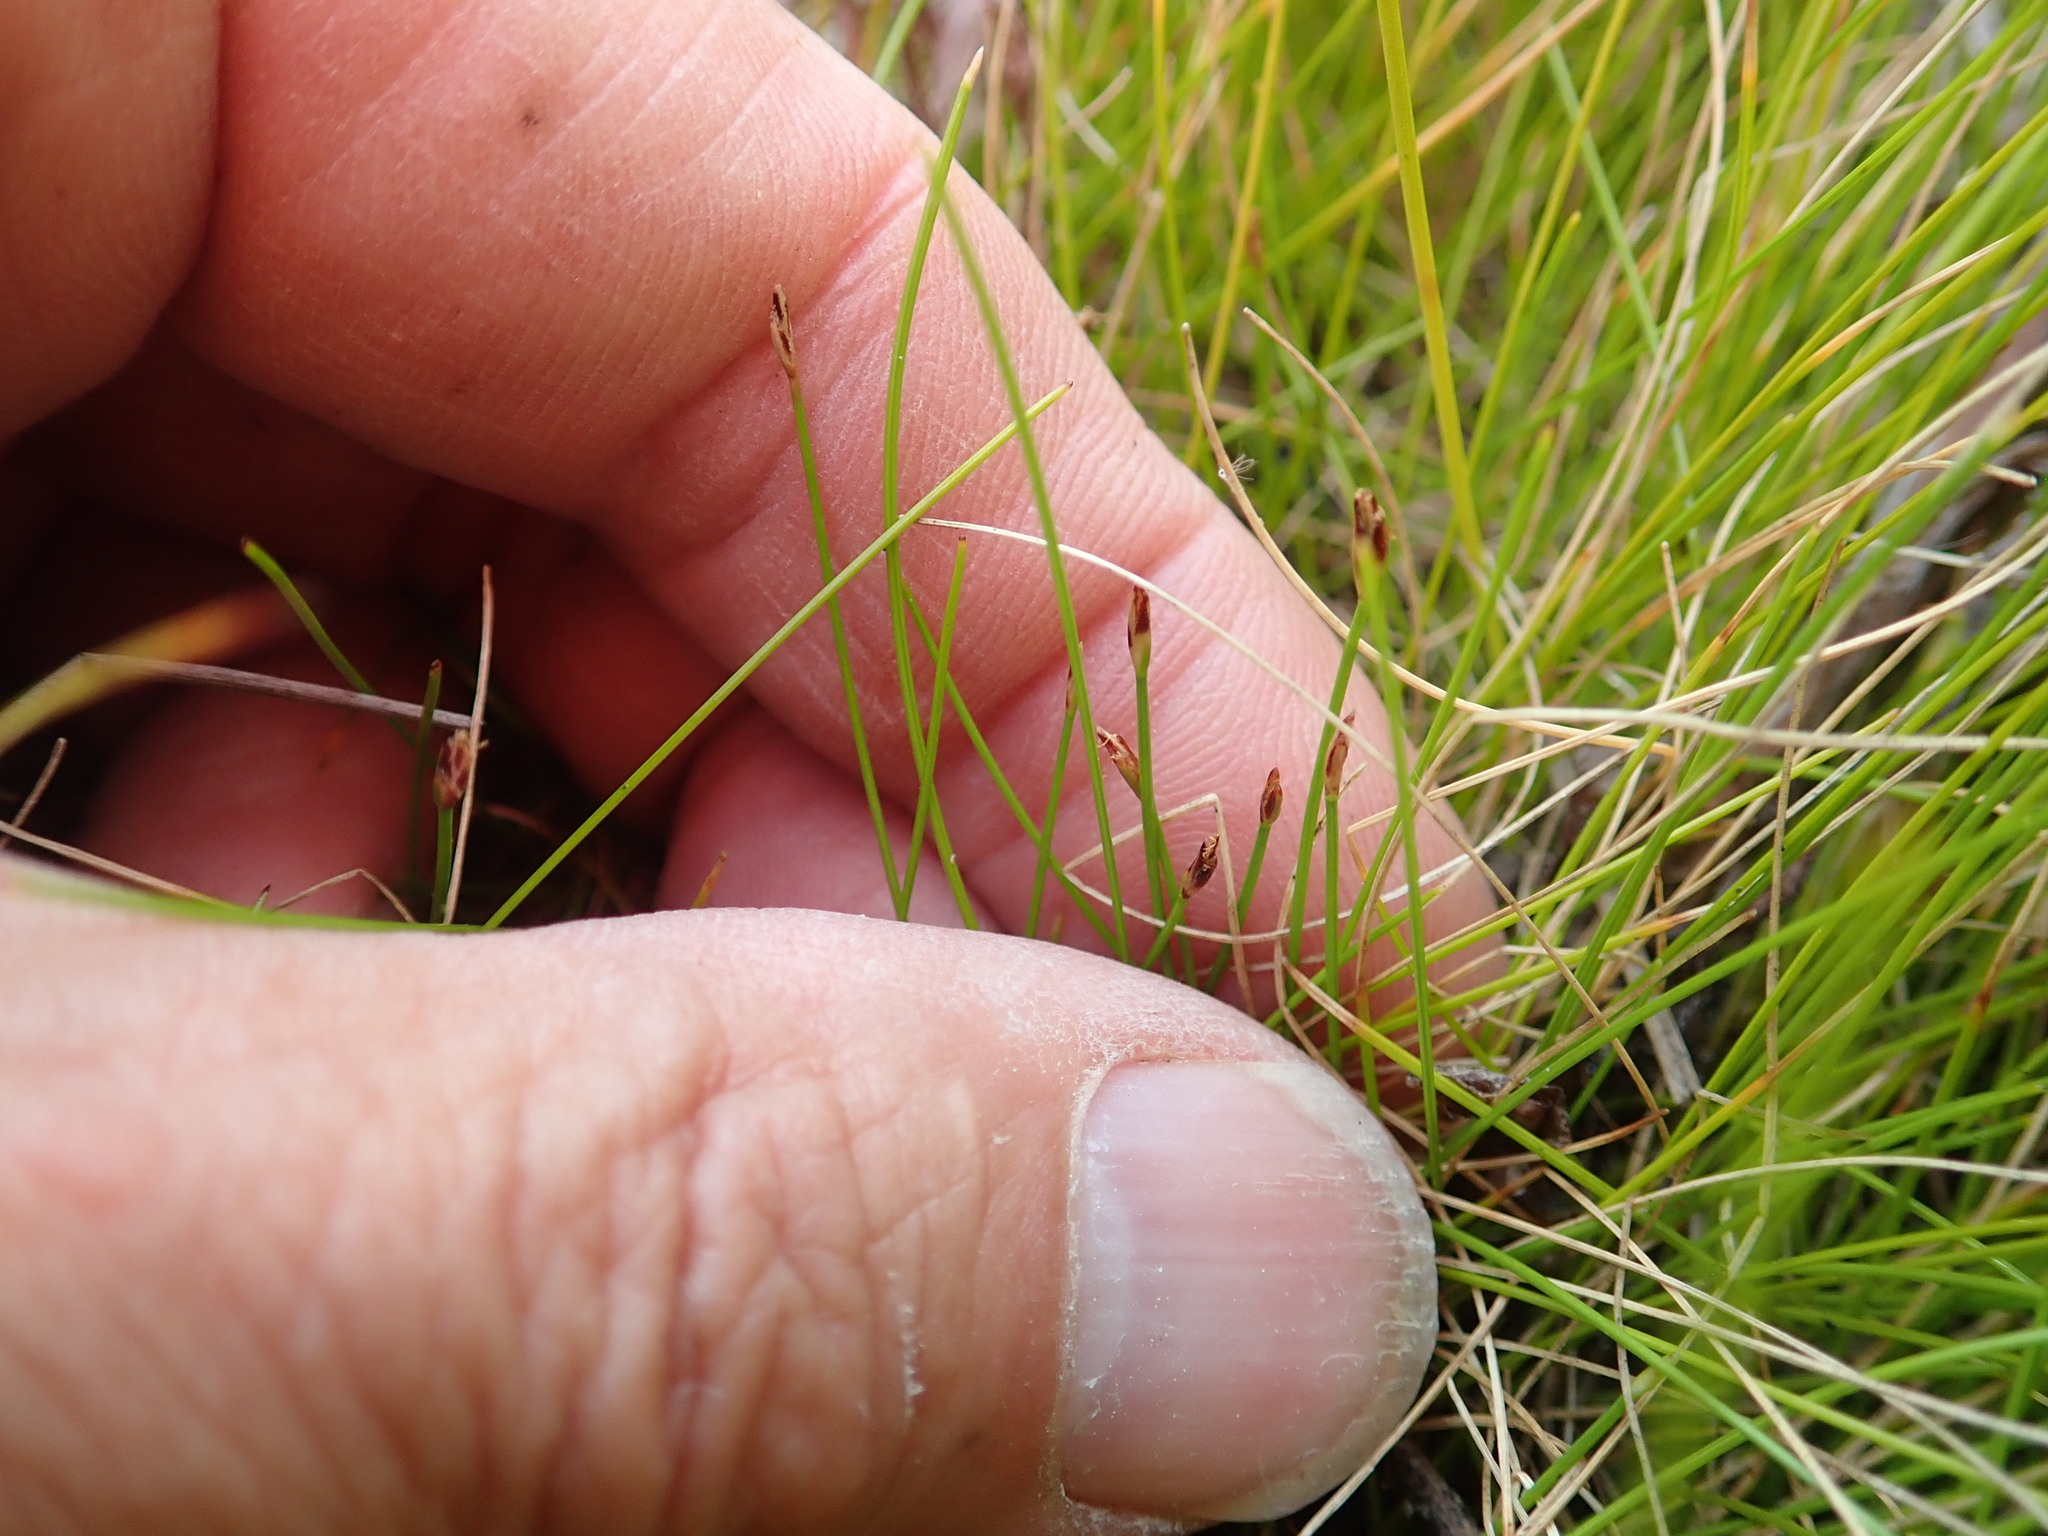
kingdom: Plantae
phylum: Tracheophyta
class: Liliopsida
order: Poales
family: Cyperaceae
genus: Eleocharis
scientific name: Eleocharis gracilis
